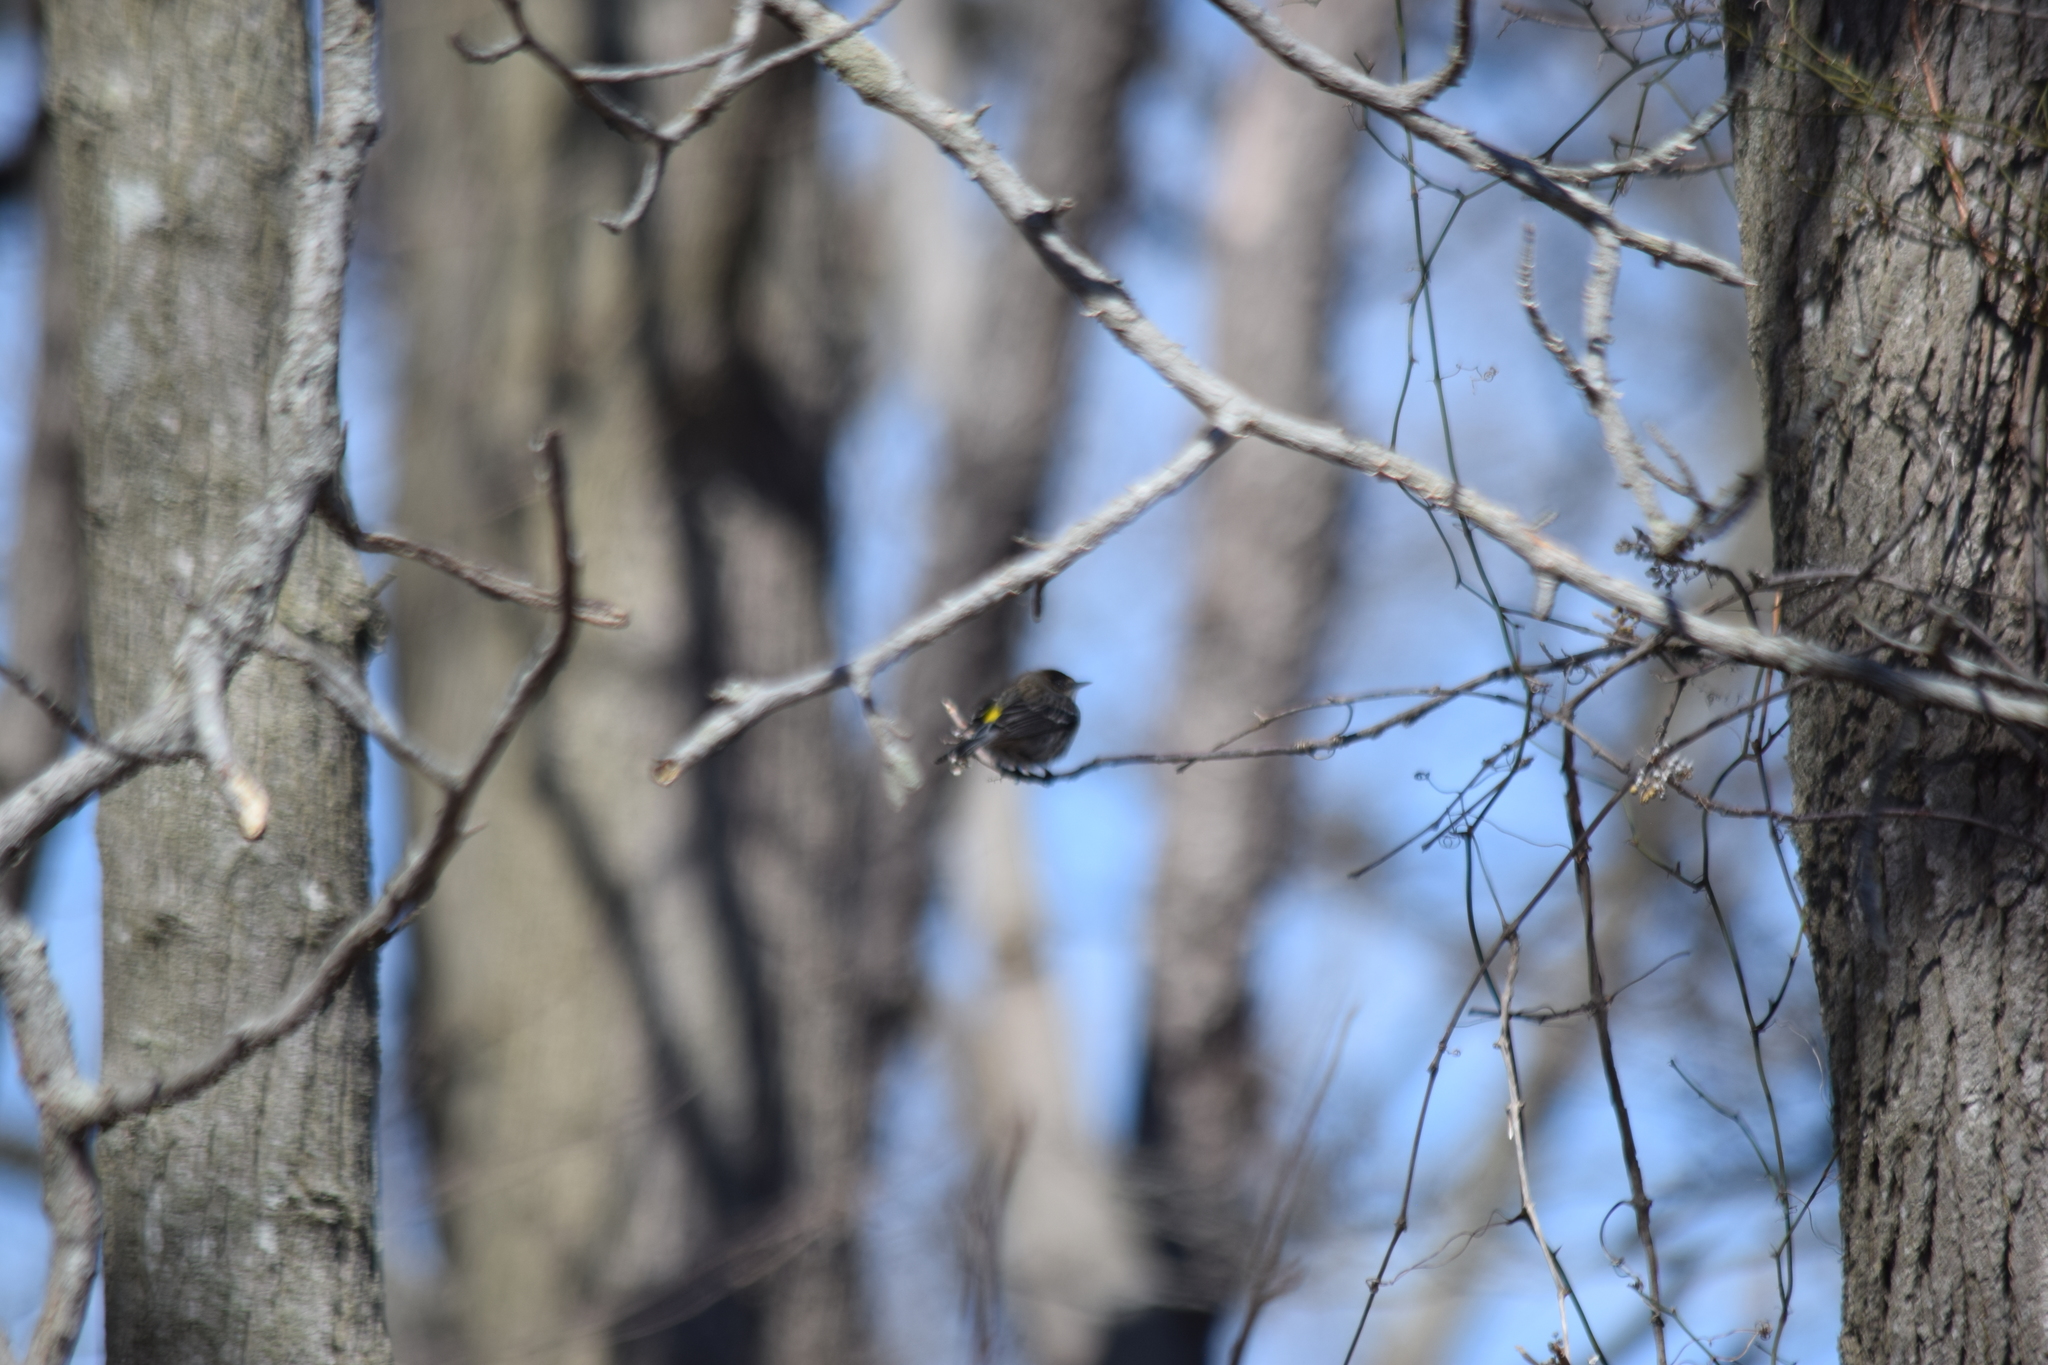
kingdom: Animalia
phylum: Chordata
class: Aves
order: Passeriformes
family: Parulidae
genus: Setophaga
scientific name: Setophaga coronata
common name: Myrtle warbler
